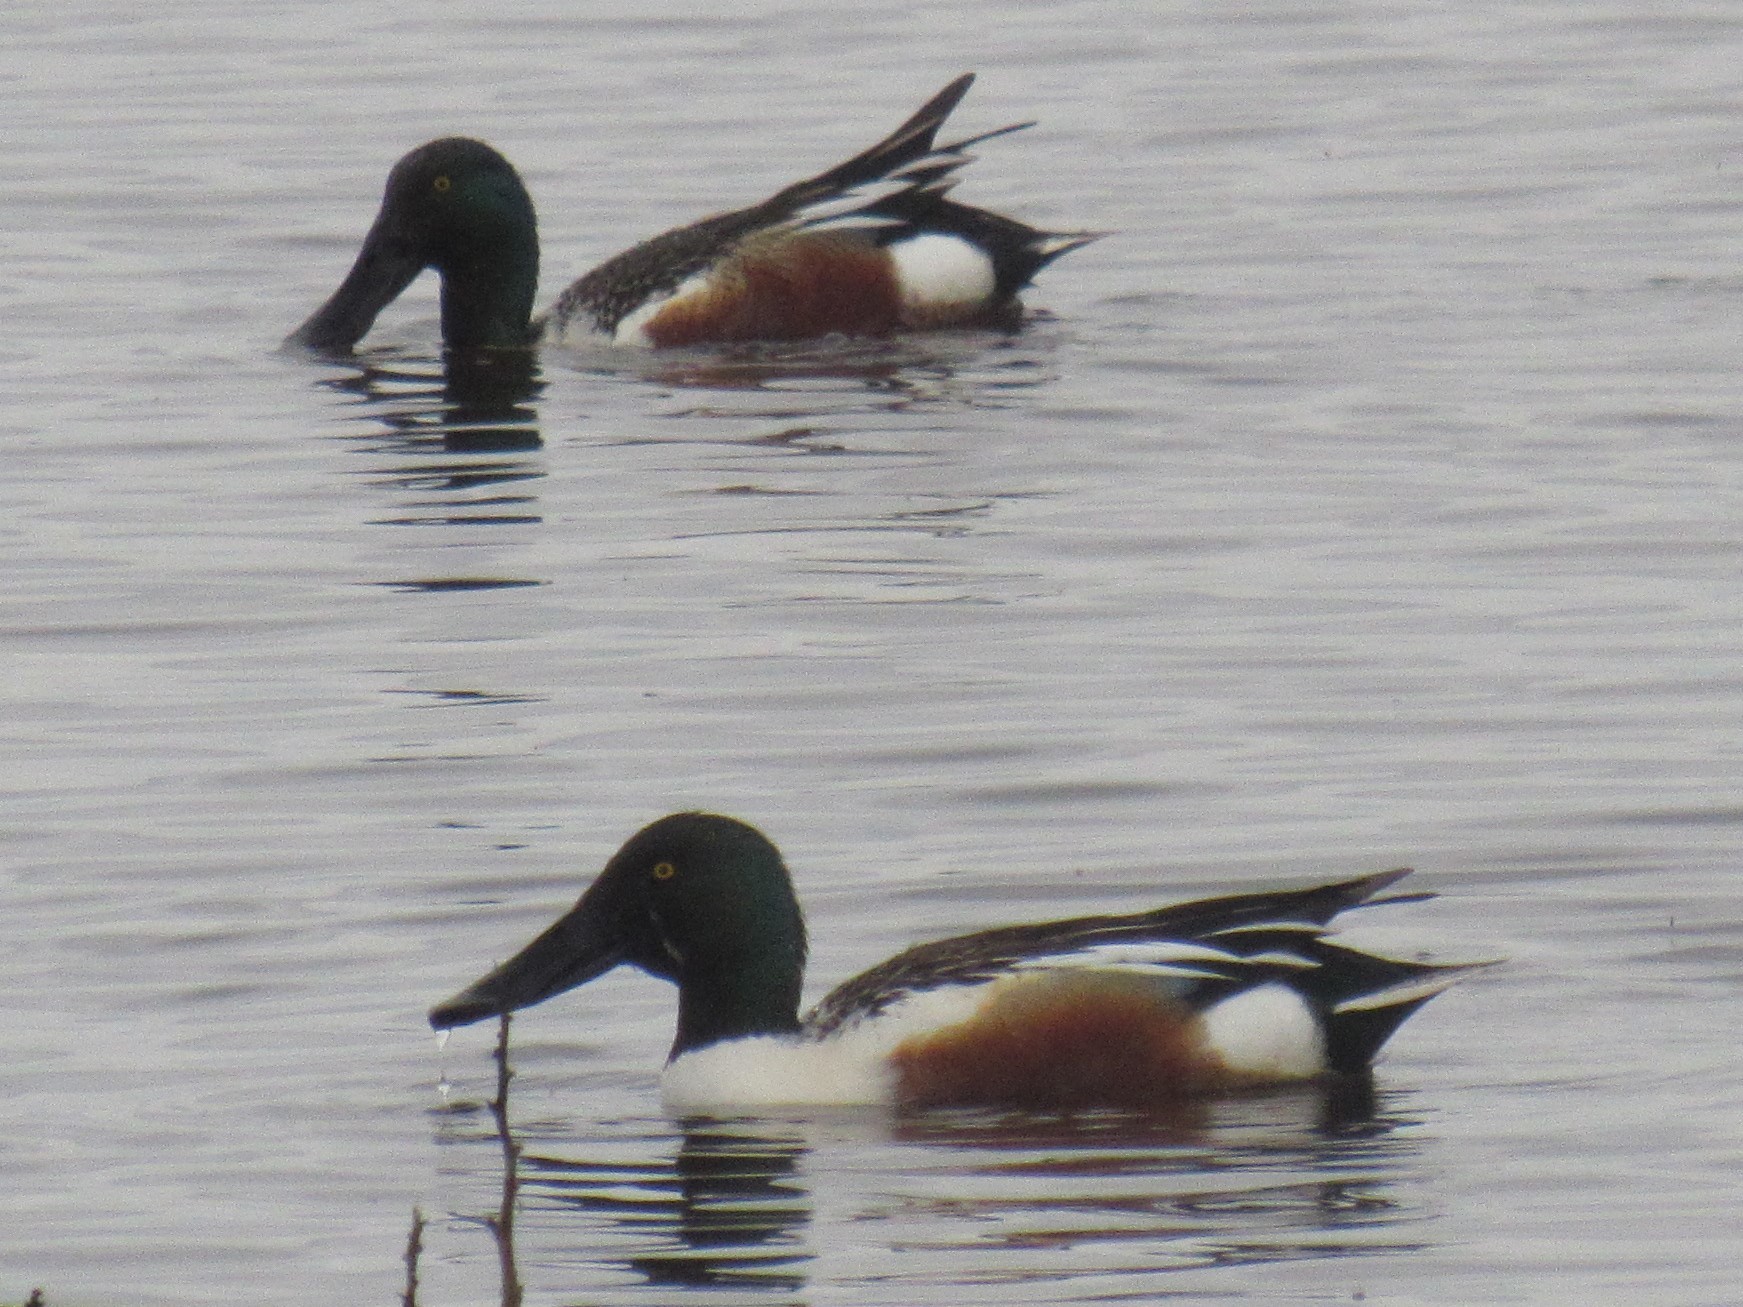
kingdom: Animalia
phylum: Chordata
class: Aves
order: Anseriformes
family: Anatidae
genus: Spatula
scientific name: Spatula clypeata
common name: Northern shoveler
